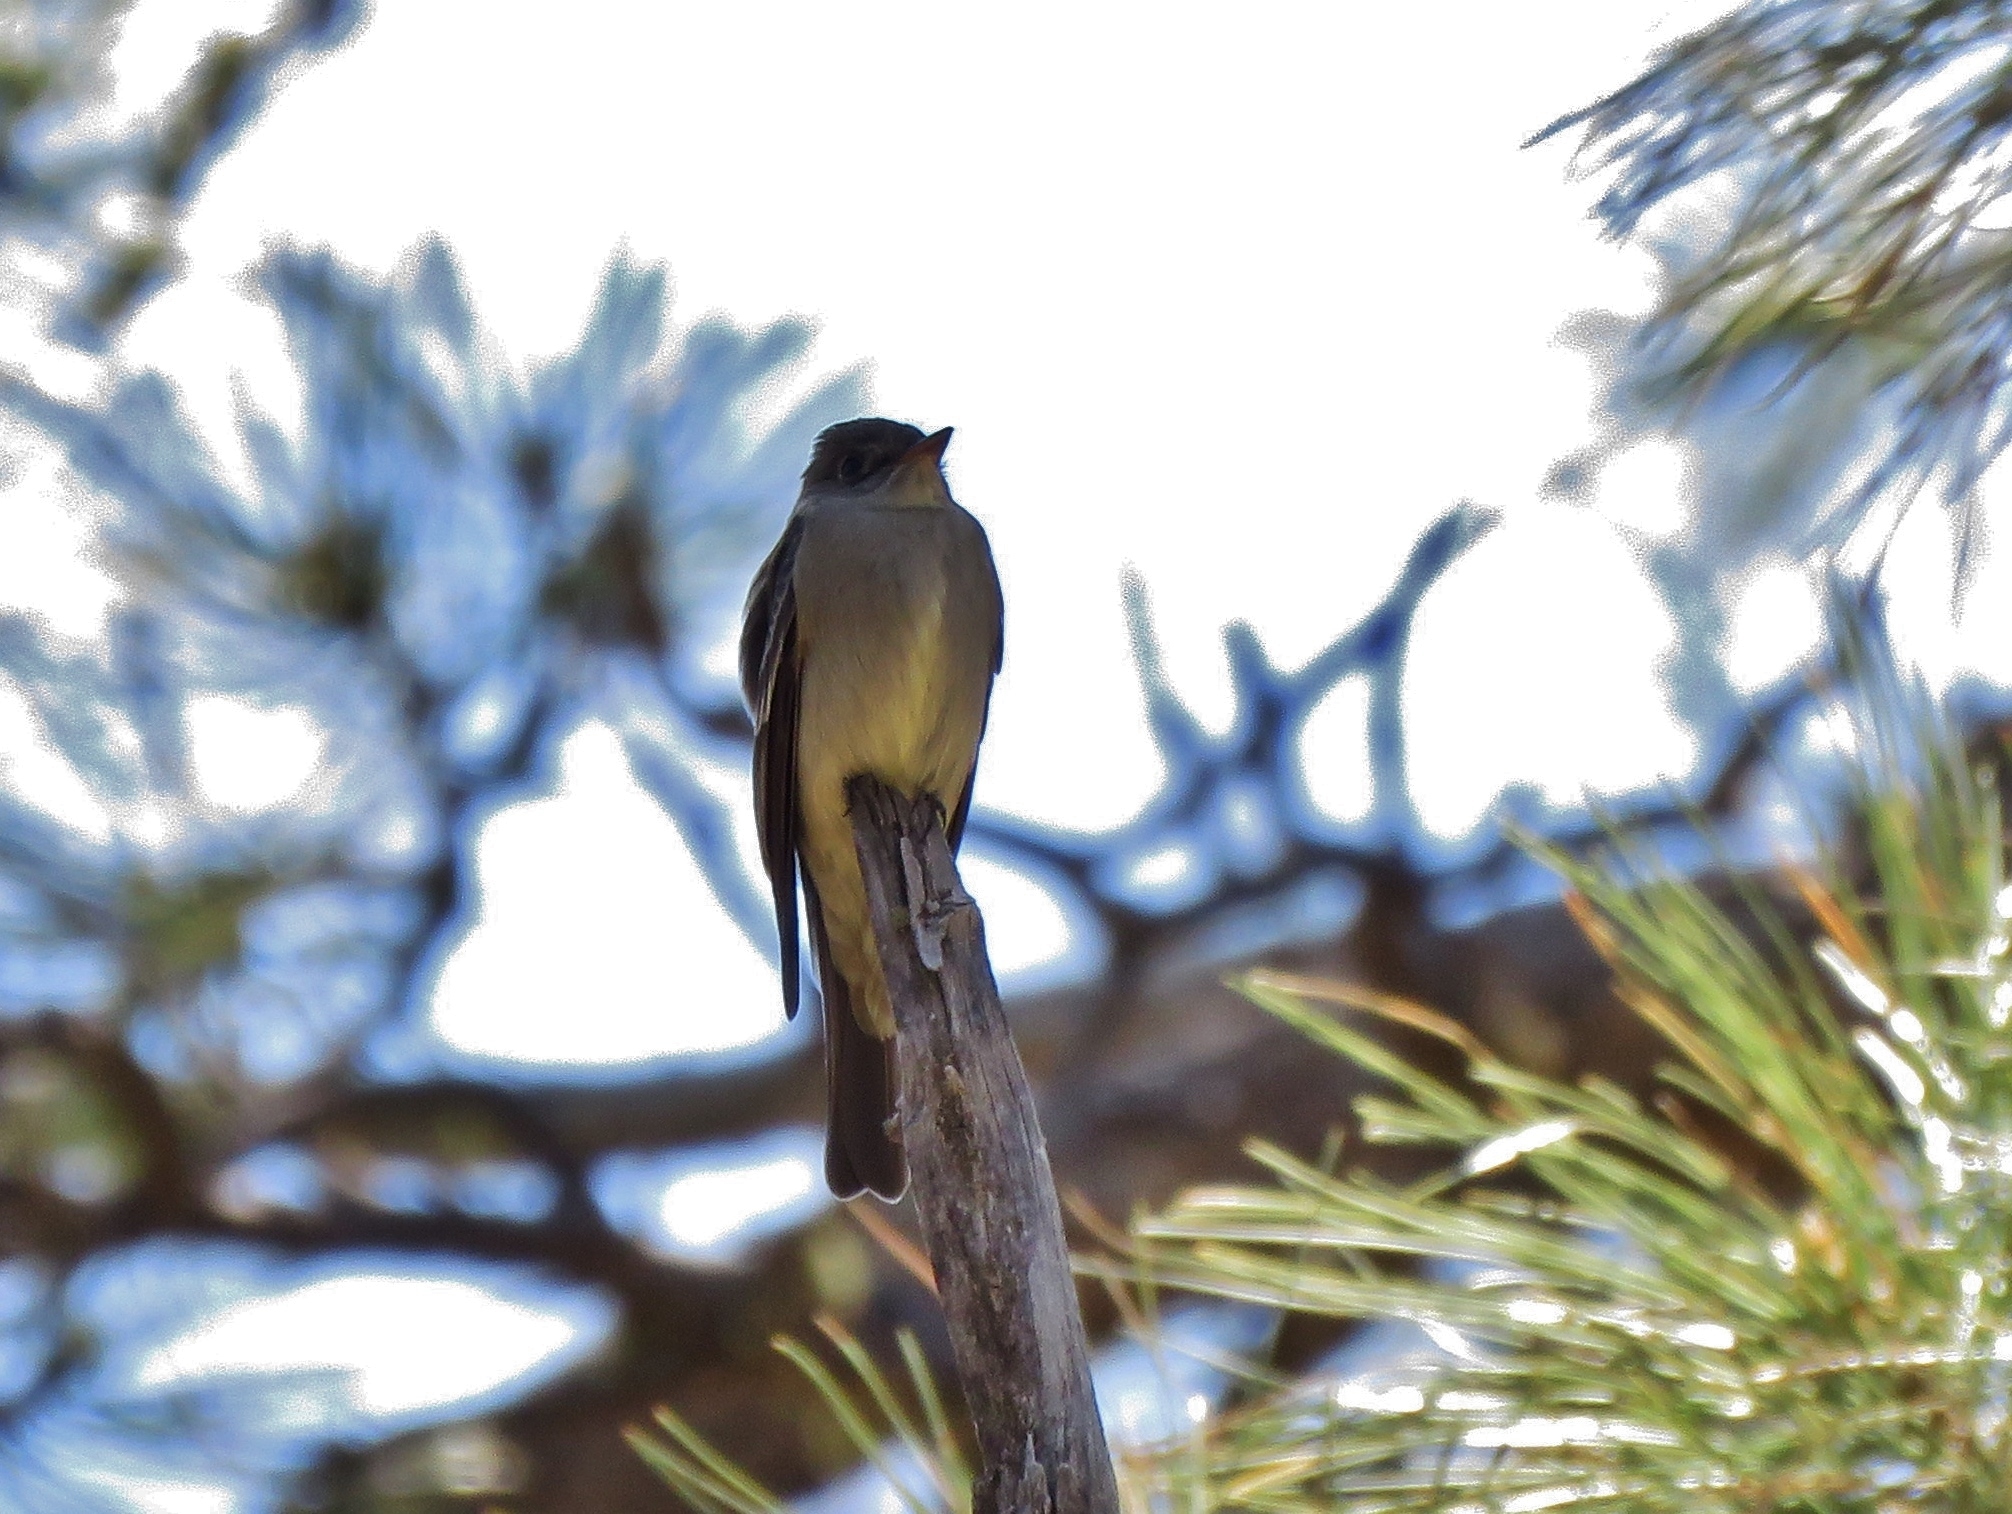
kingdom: Animalia
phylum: Chordata
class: Aves
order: Passeriformes
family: Tyrannidae
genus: Contopus
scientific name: Contopus sordidulus
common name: Western wood-pewee
